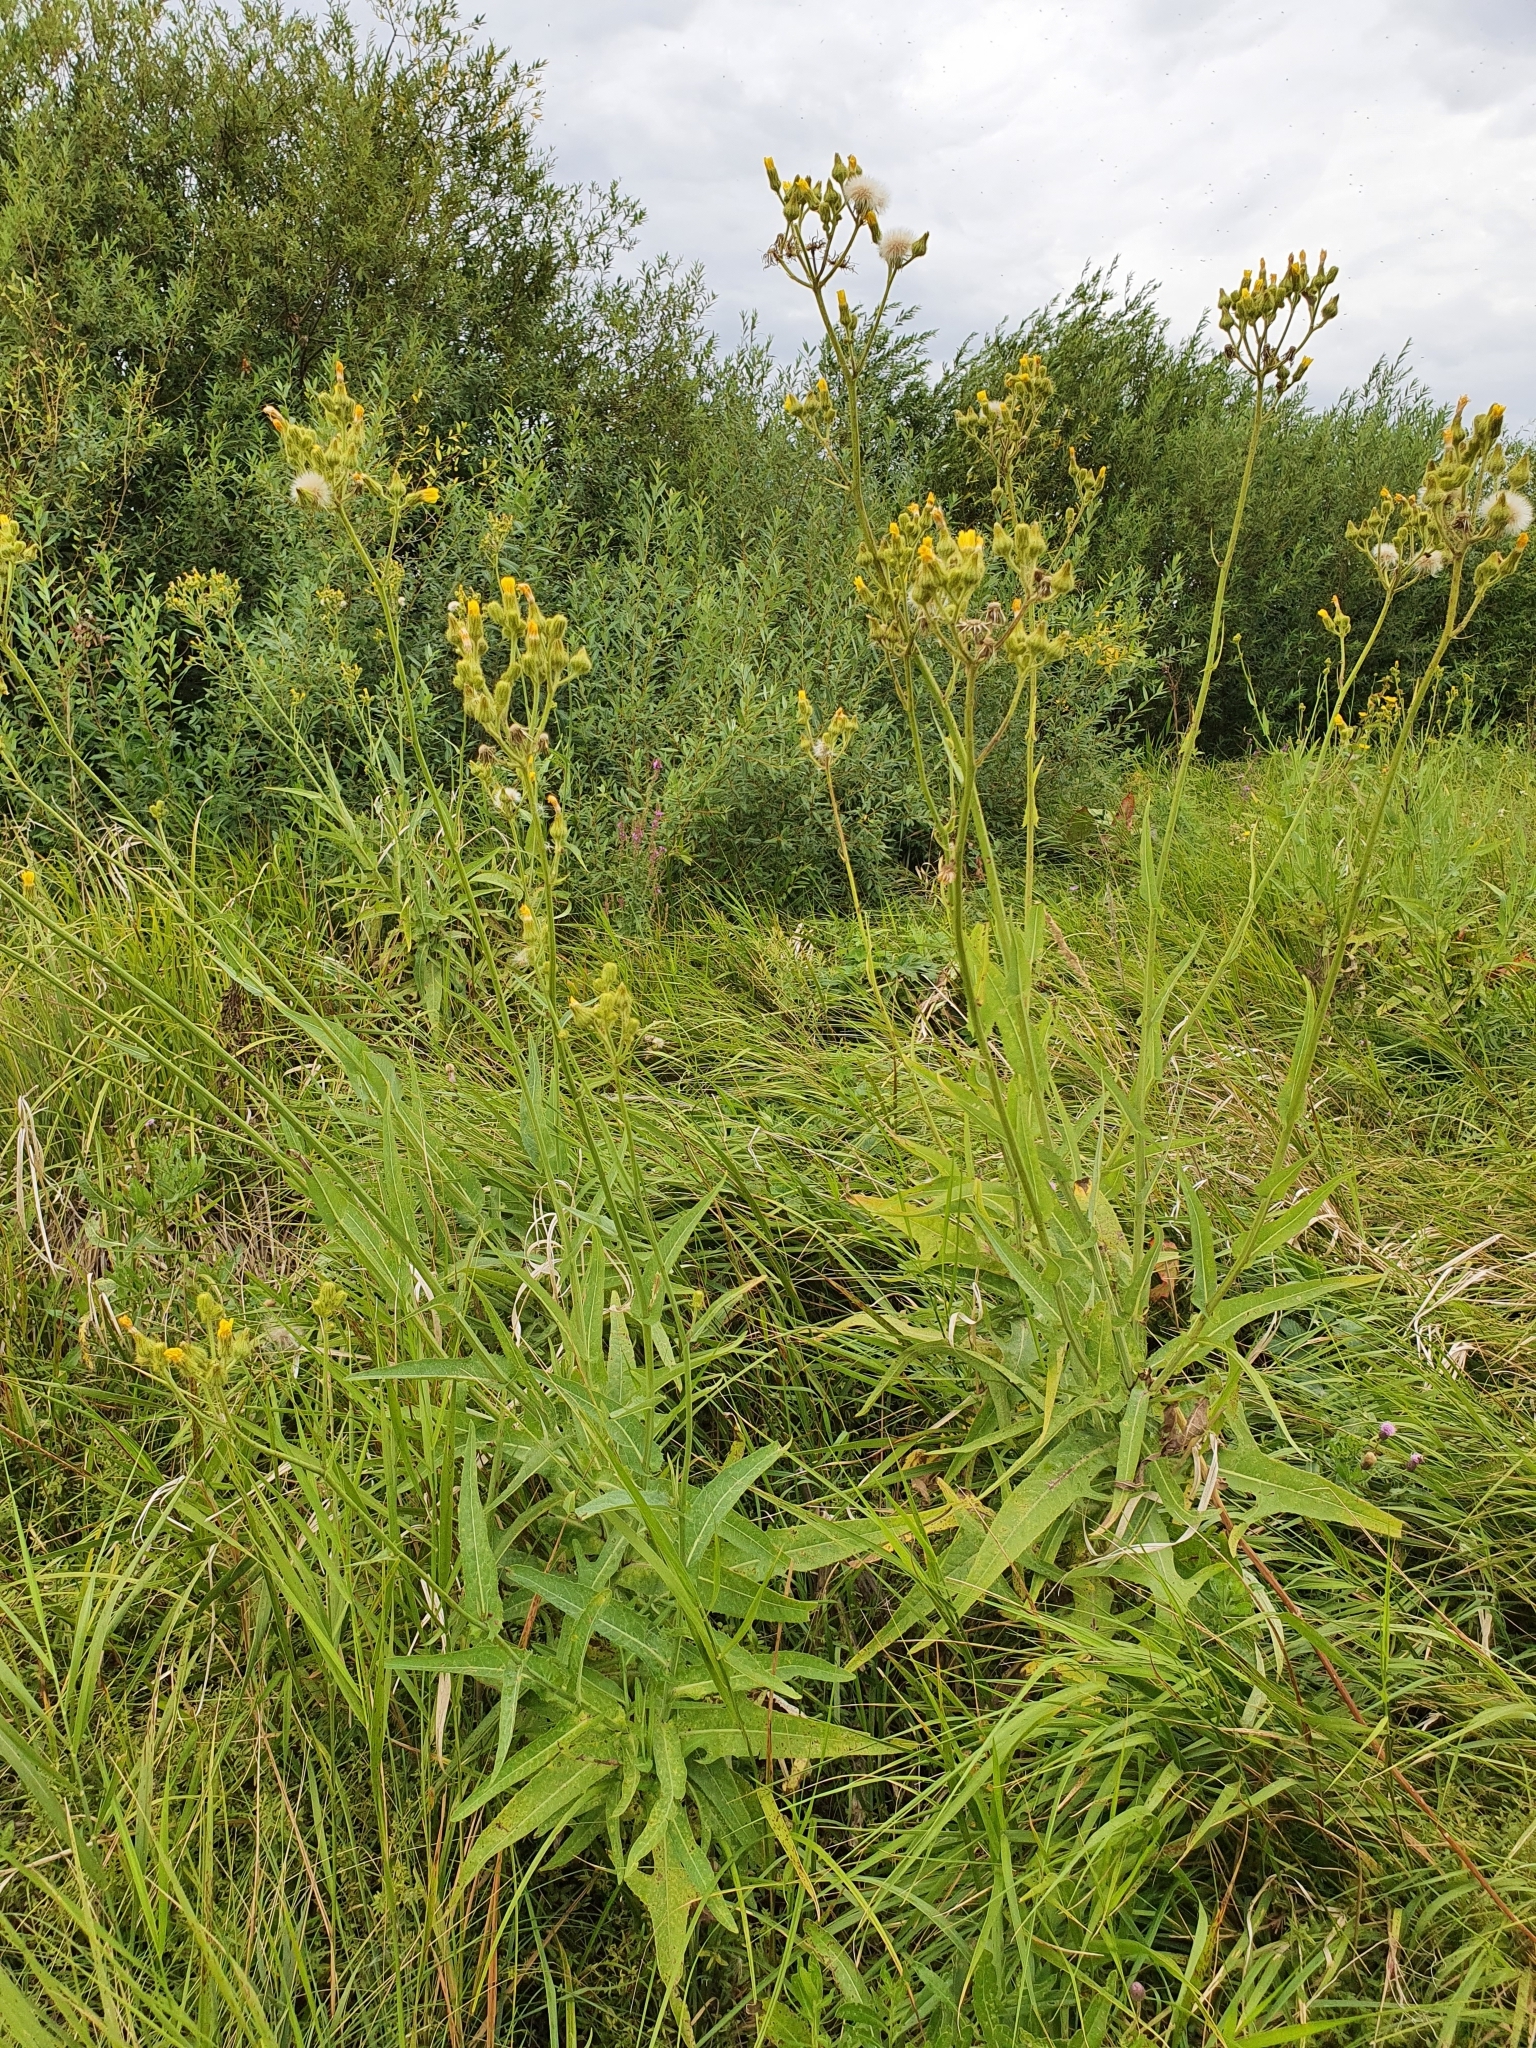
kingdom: Plantae
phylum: Tracheophyta
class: Magnoliopsida
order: Asterales
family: Asteraceae
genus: Sonchus
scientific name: Sonchus palustris
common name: Marsh sow-thistle
